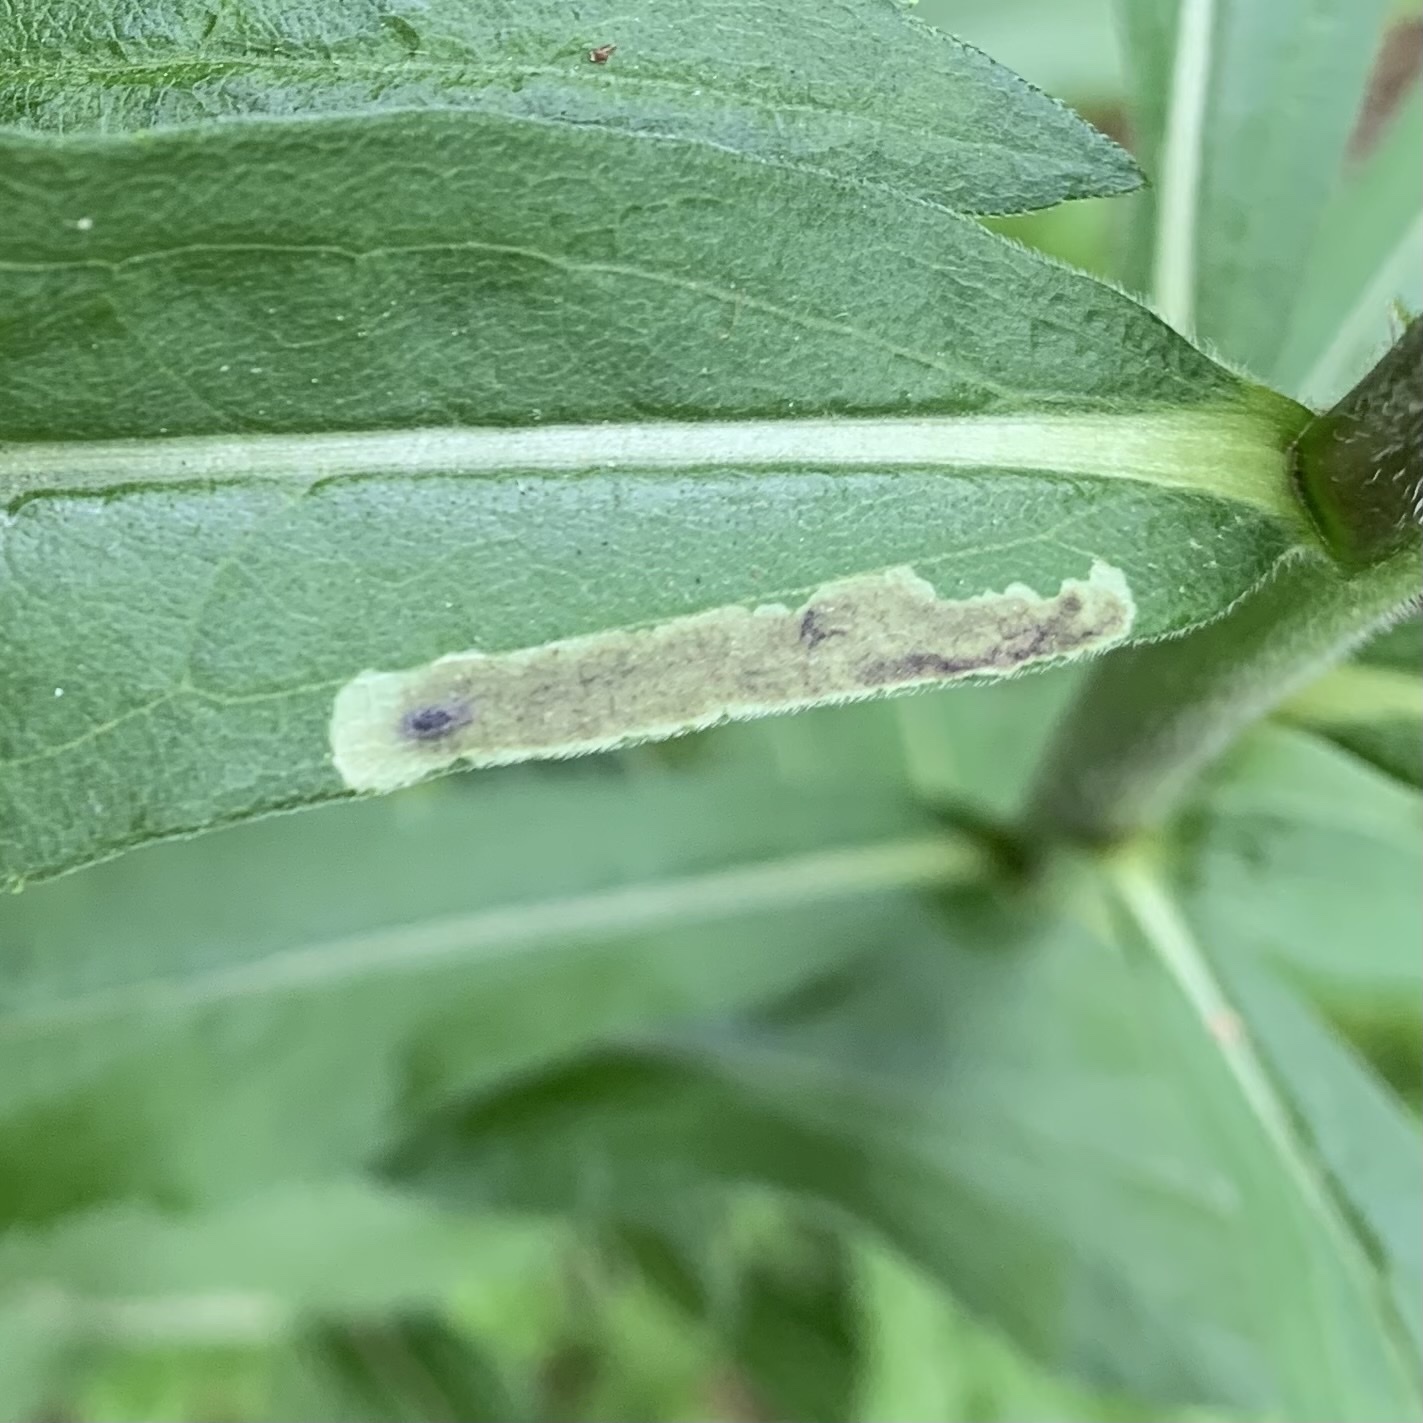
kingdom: Animalia
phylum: Arthropoda
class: Insecta
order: Diptera
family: Agromyzidae
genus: Calycomyza
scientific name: Calycomyza solidaginis
